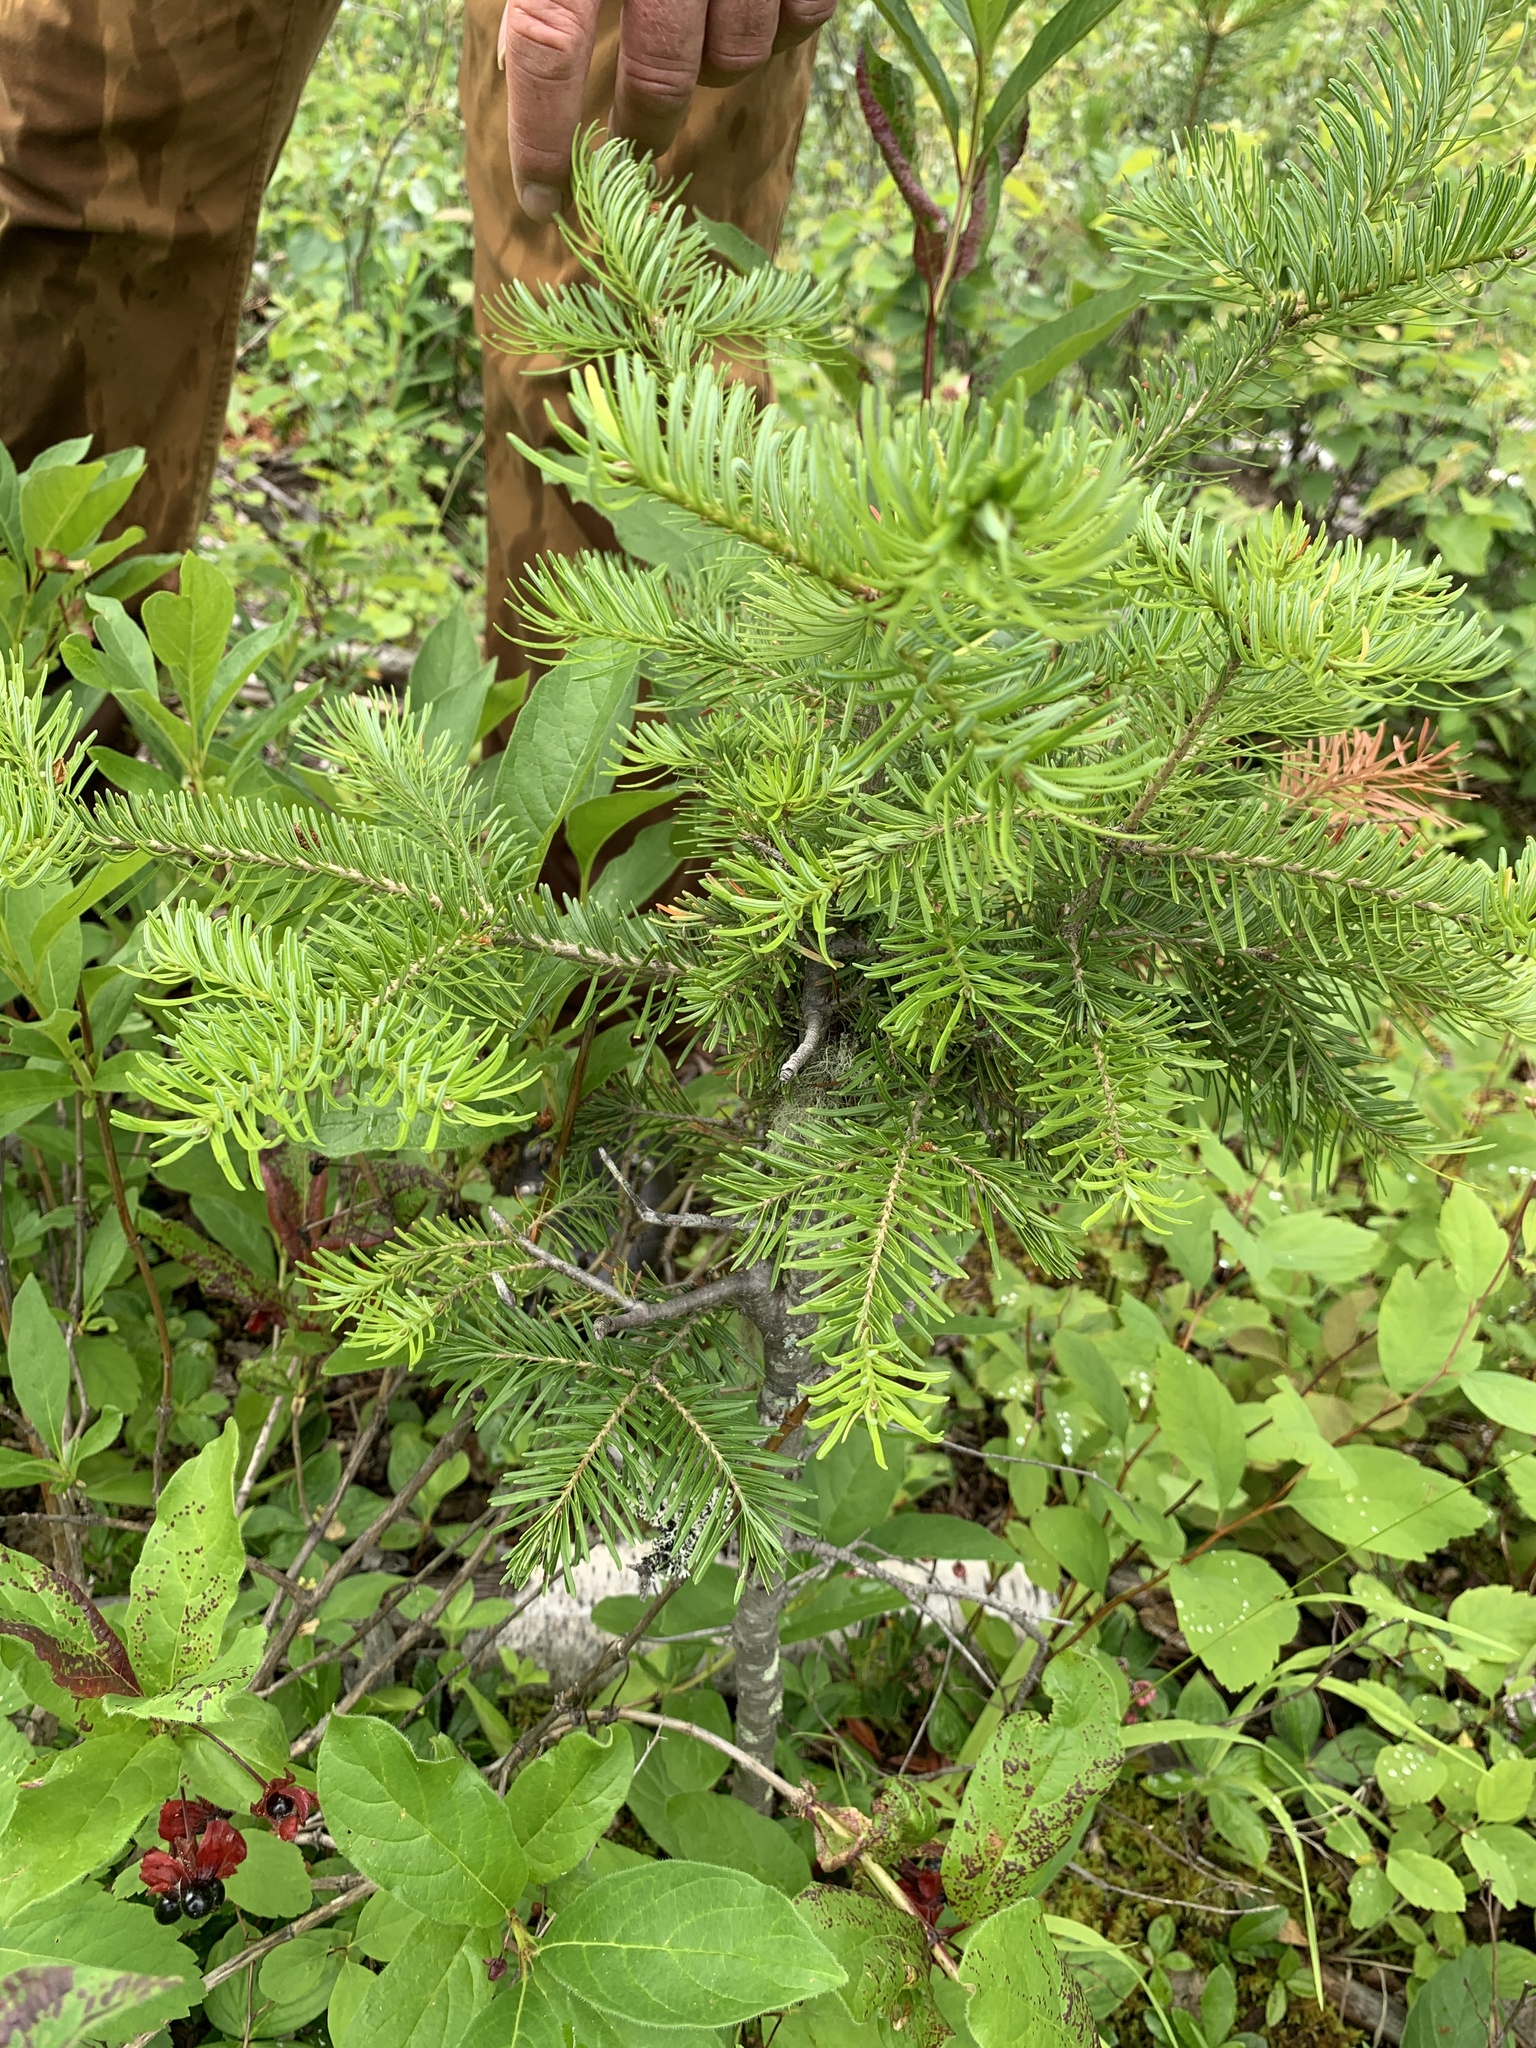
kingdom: Plantae
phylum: Tracheophyta
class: Pinopsida
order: Pinales
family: Pinaceae
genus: Abies
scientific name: Abies lasiocarpa
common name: Subalpine fir
